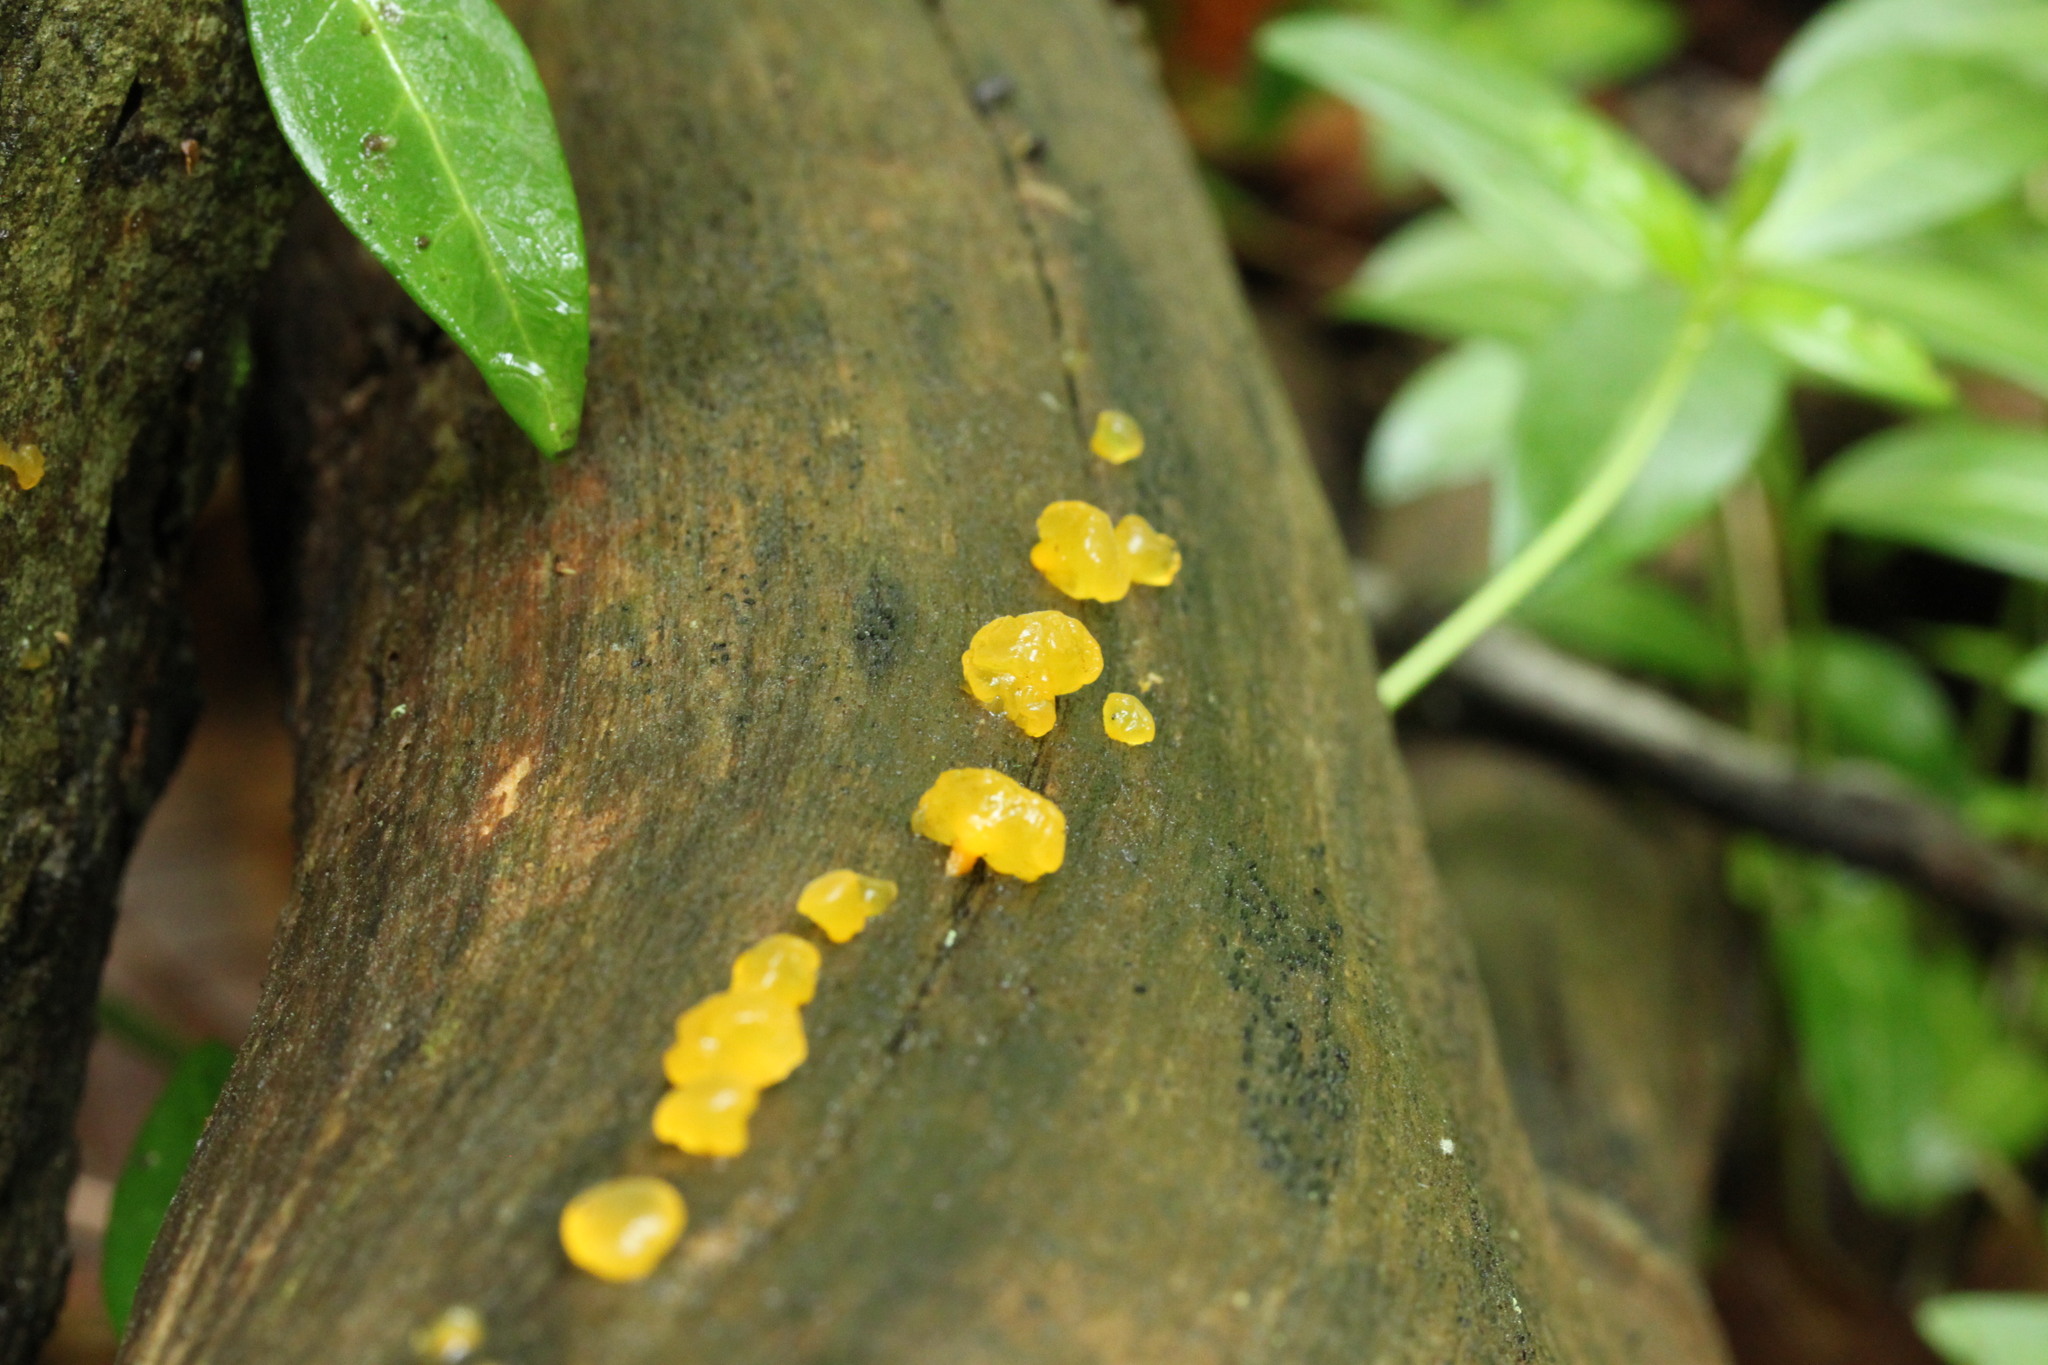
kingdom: Fungi
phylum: Basidiomycota
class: Dacrymycetes
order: Dacrymycetales
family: Dacrymycetaceae
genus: Dacrymyces
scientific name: Dacrymyces capitatus
